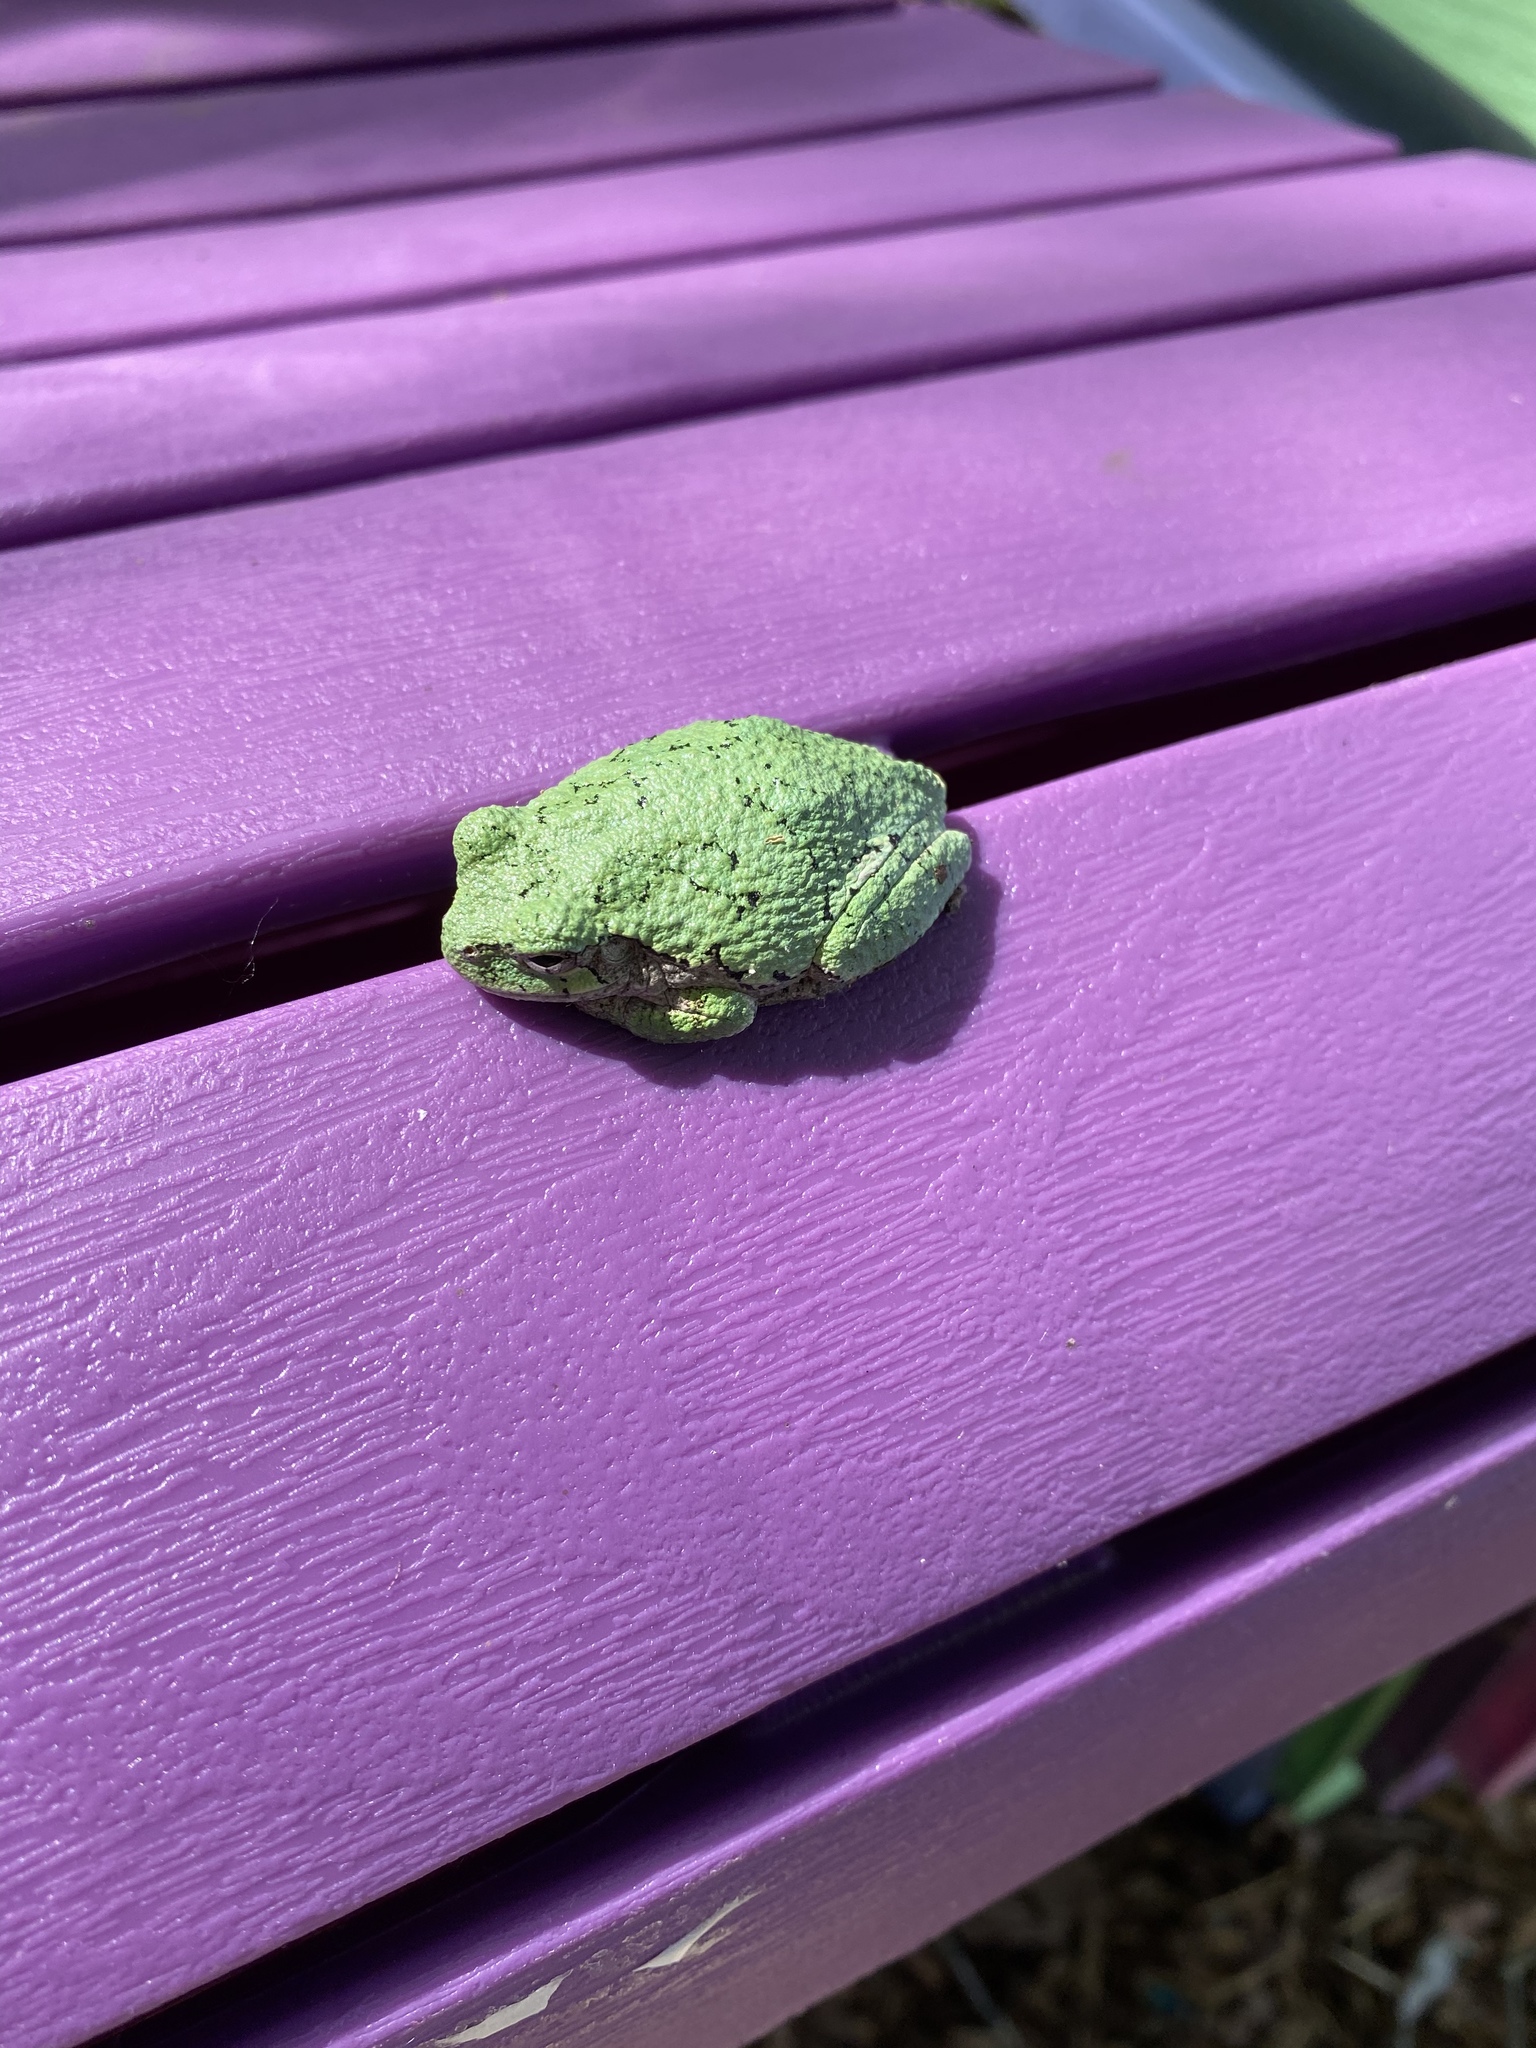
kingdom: Animalia
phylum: Chordata
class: Amphibia
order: Anura
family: Hylidae
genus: Hyla
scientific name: Hyla
